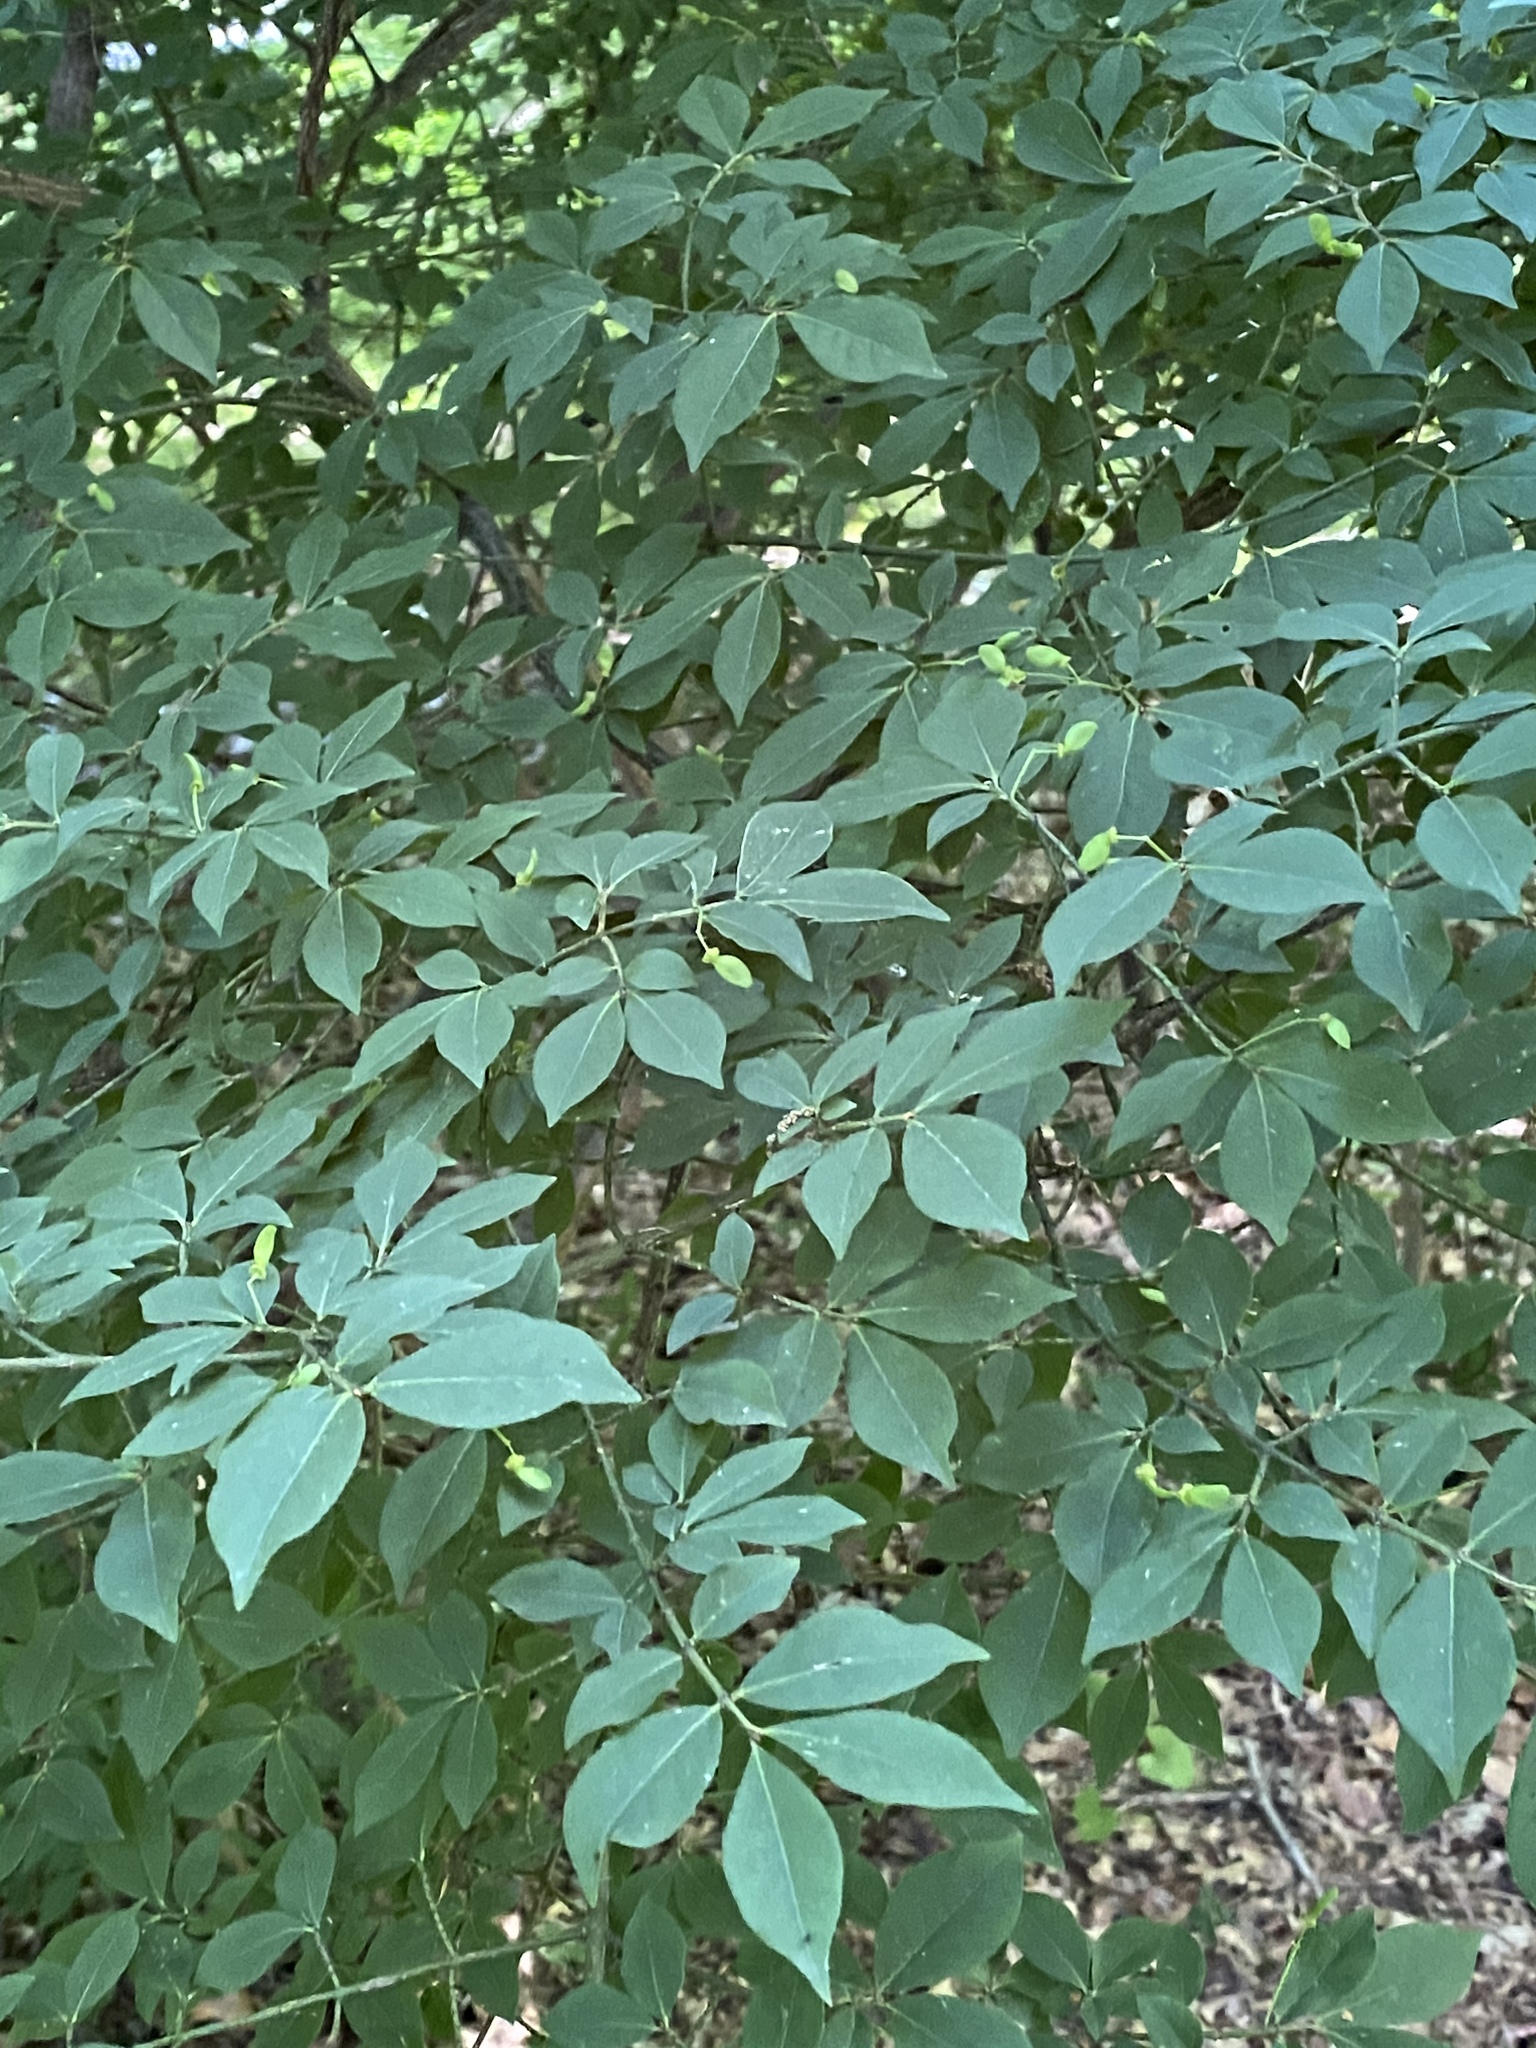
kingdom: Plantae
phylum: Tracheophyta
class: Magnoliopsida
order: Celastrales
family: Celastraceae
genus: Euonymus
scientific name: Euonymus alatus
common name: Winged euonymus
